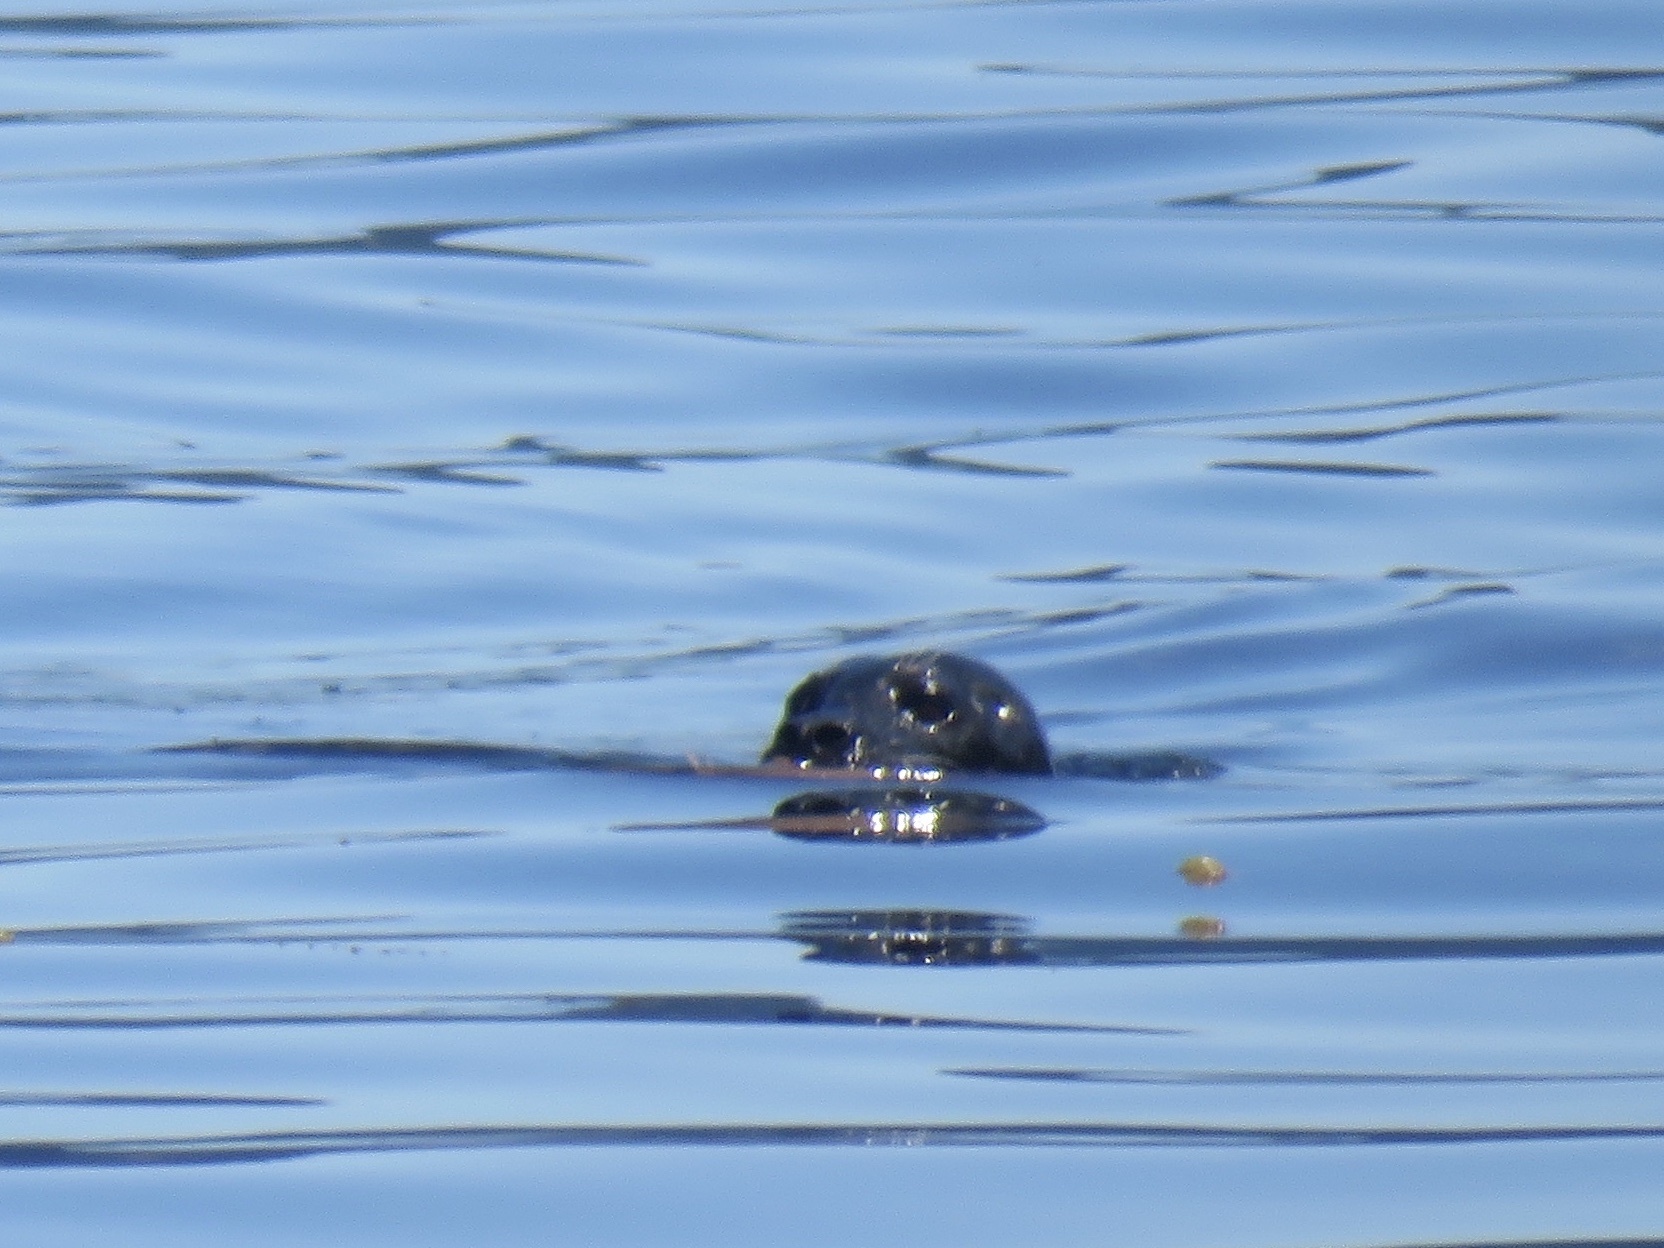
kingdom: Animalia
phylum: Chordata
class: Mammalia
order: Carnivora
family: Phocidae
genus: Phoca
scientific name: Phoca vitulina
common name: Harbor seal
